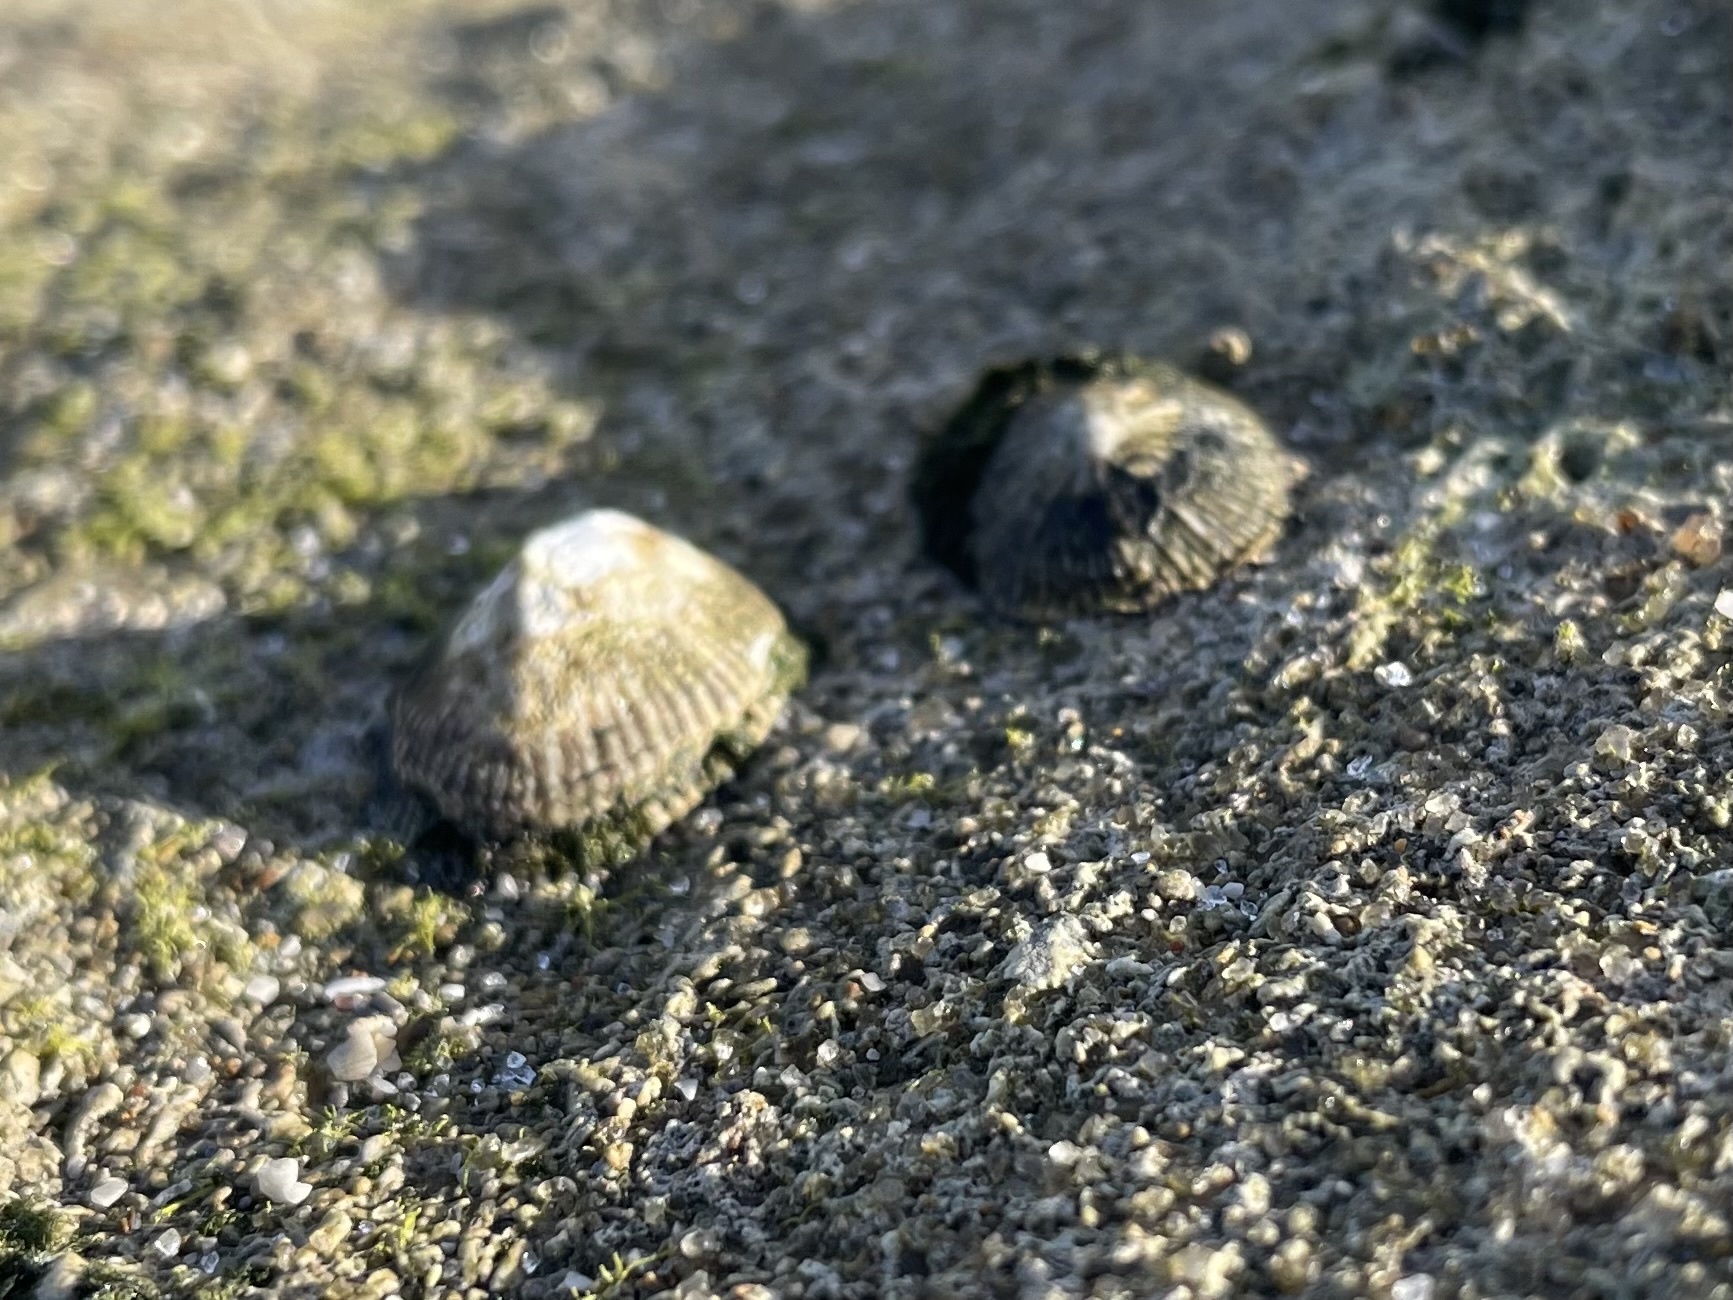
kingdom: Animalia
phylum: Mollusca
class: Gastropoda
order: Siphonariida
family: Siphonariidae
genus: Siphonaria
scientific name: Siphonaria naufragum
